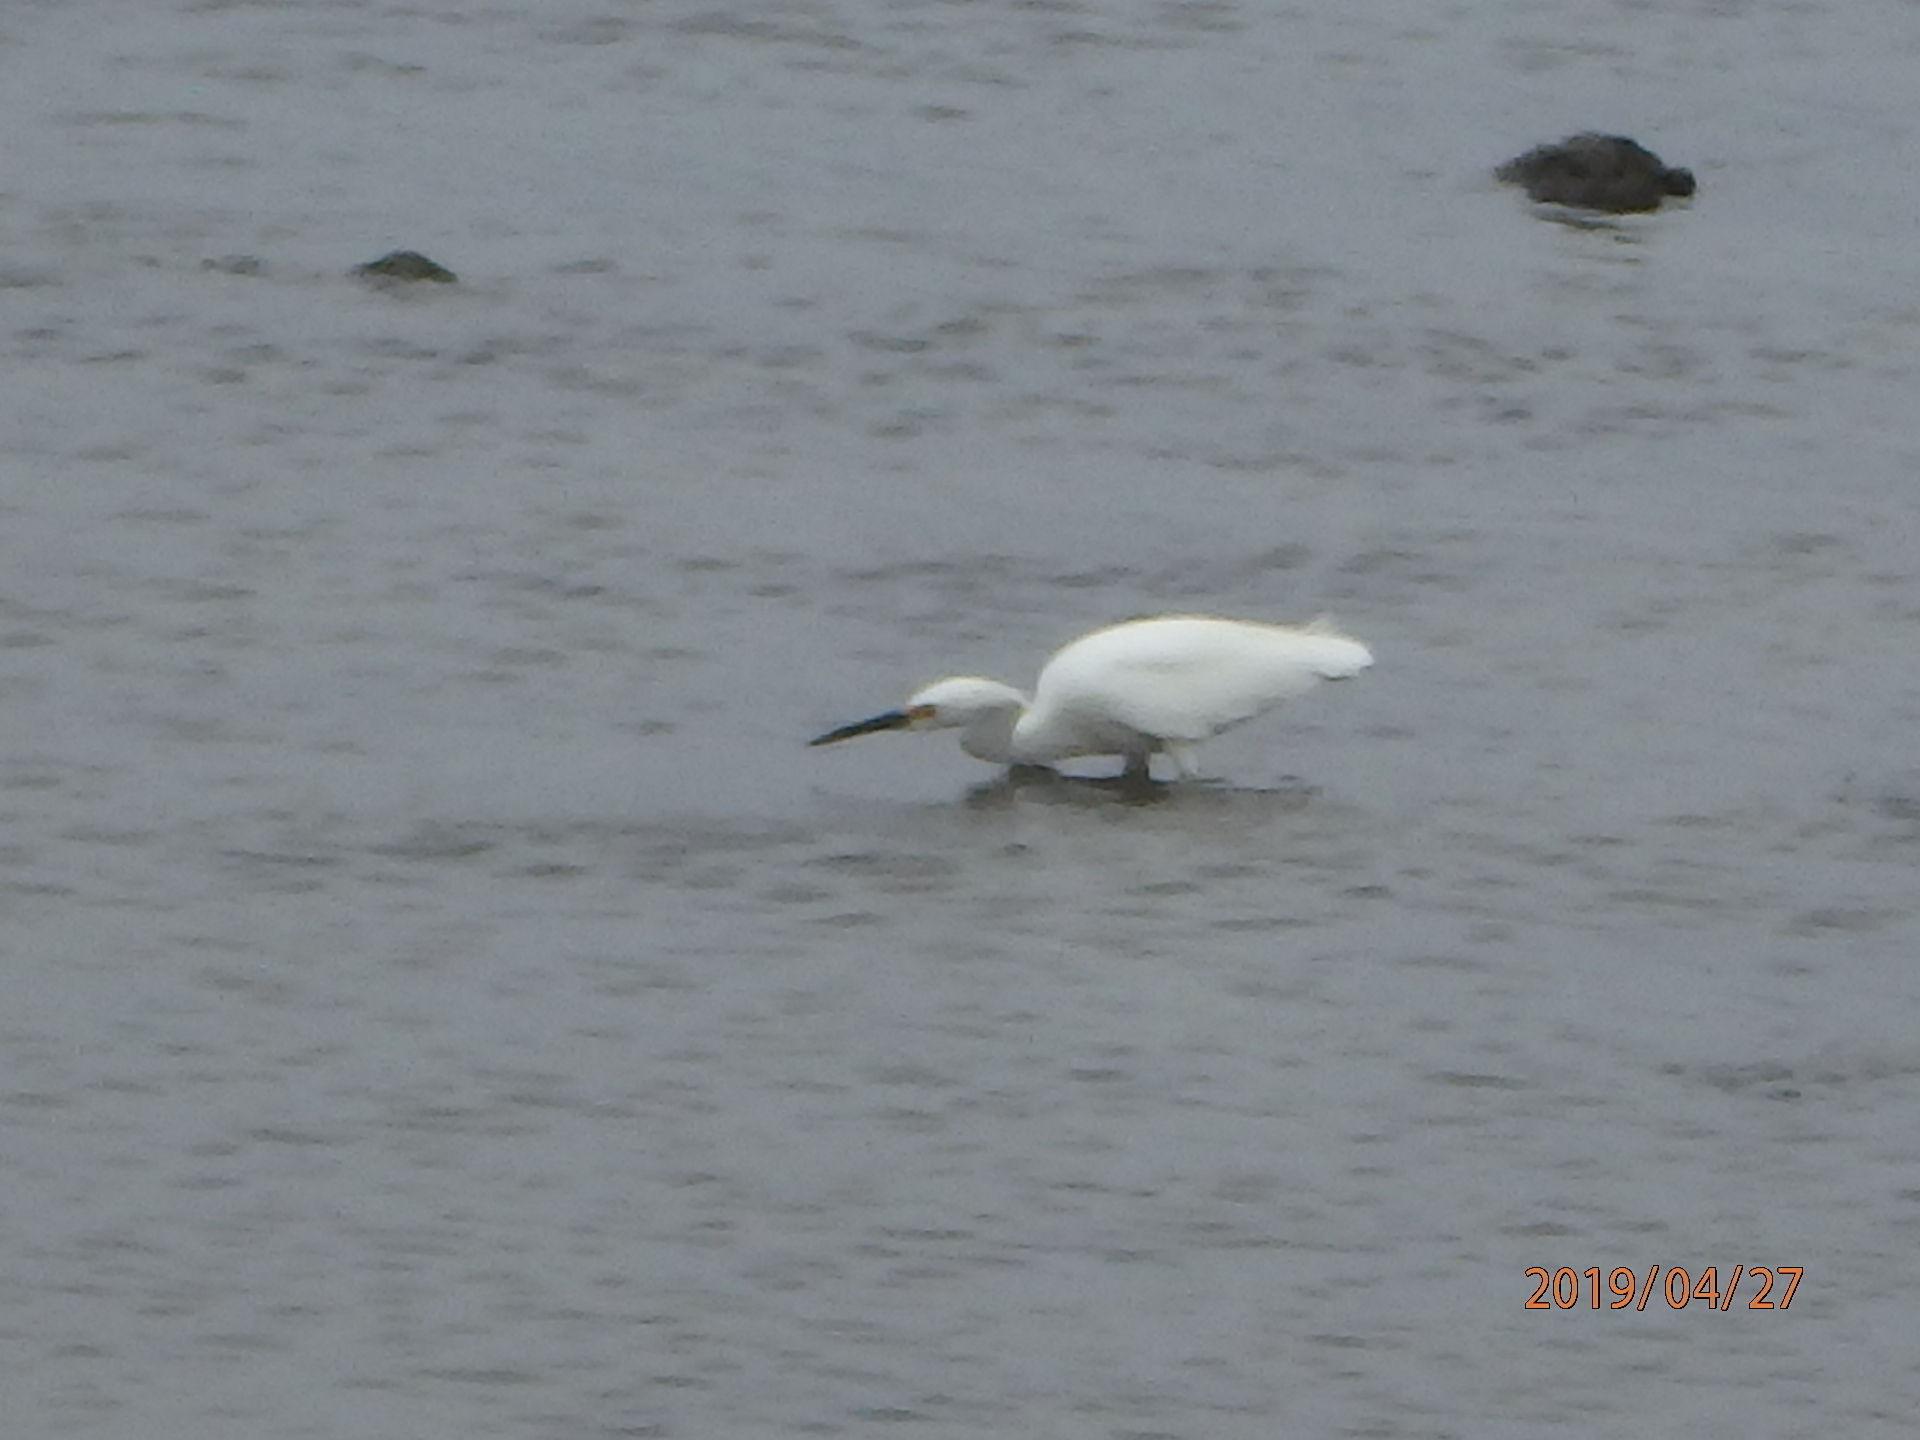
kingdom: Animalia
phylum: Chordata
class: Aves
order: Pelecaniformes
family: Ardeidae
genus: Egretta
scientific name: Egretta thula
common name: Snowy egret
